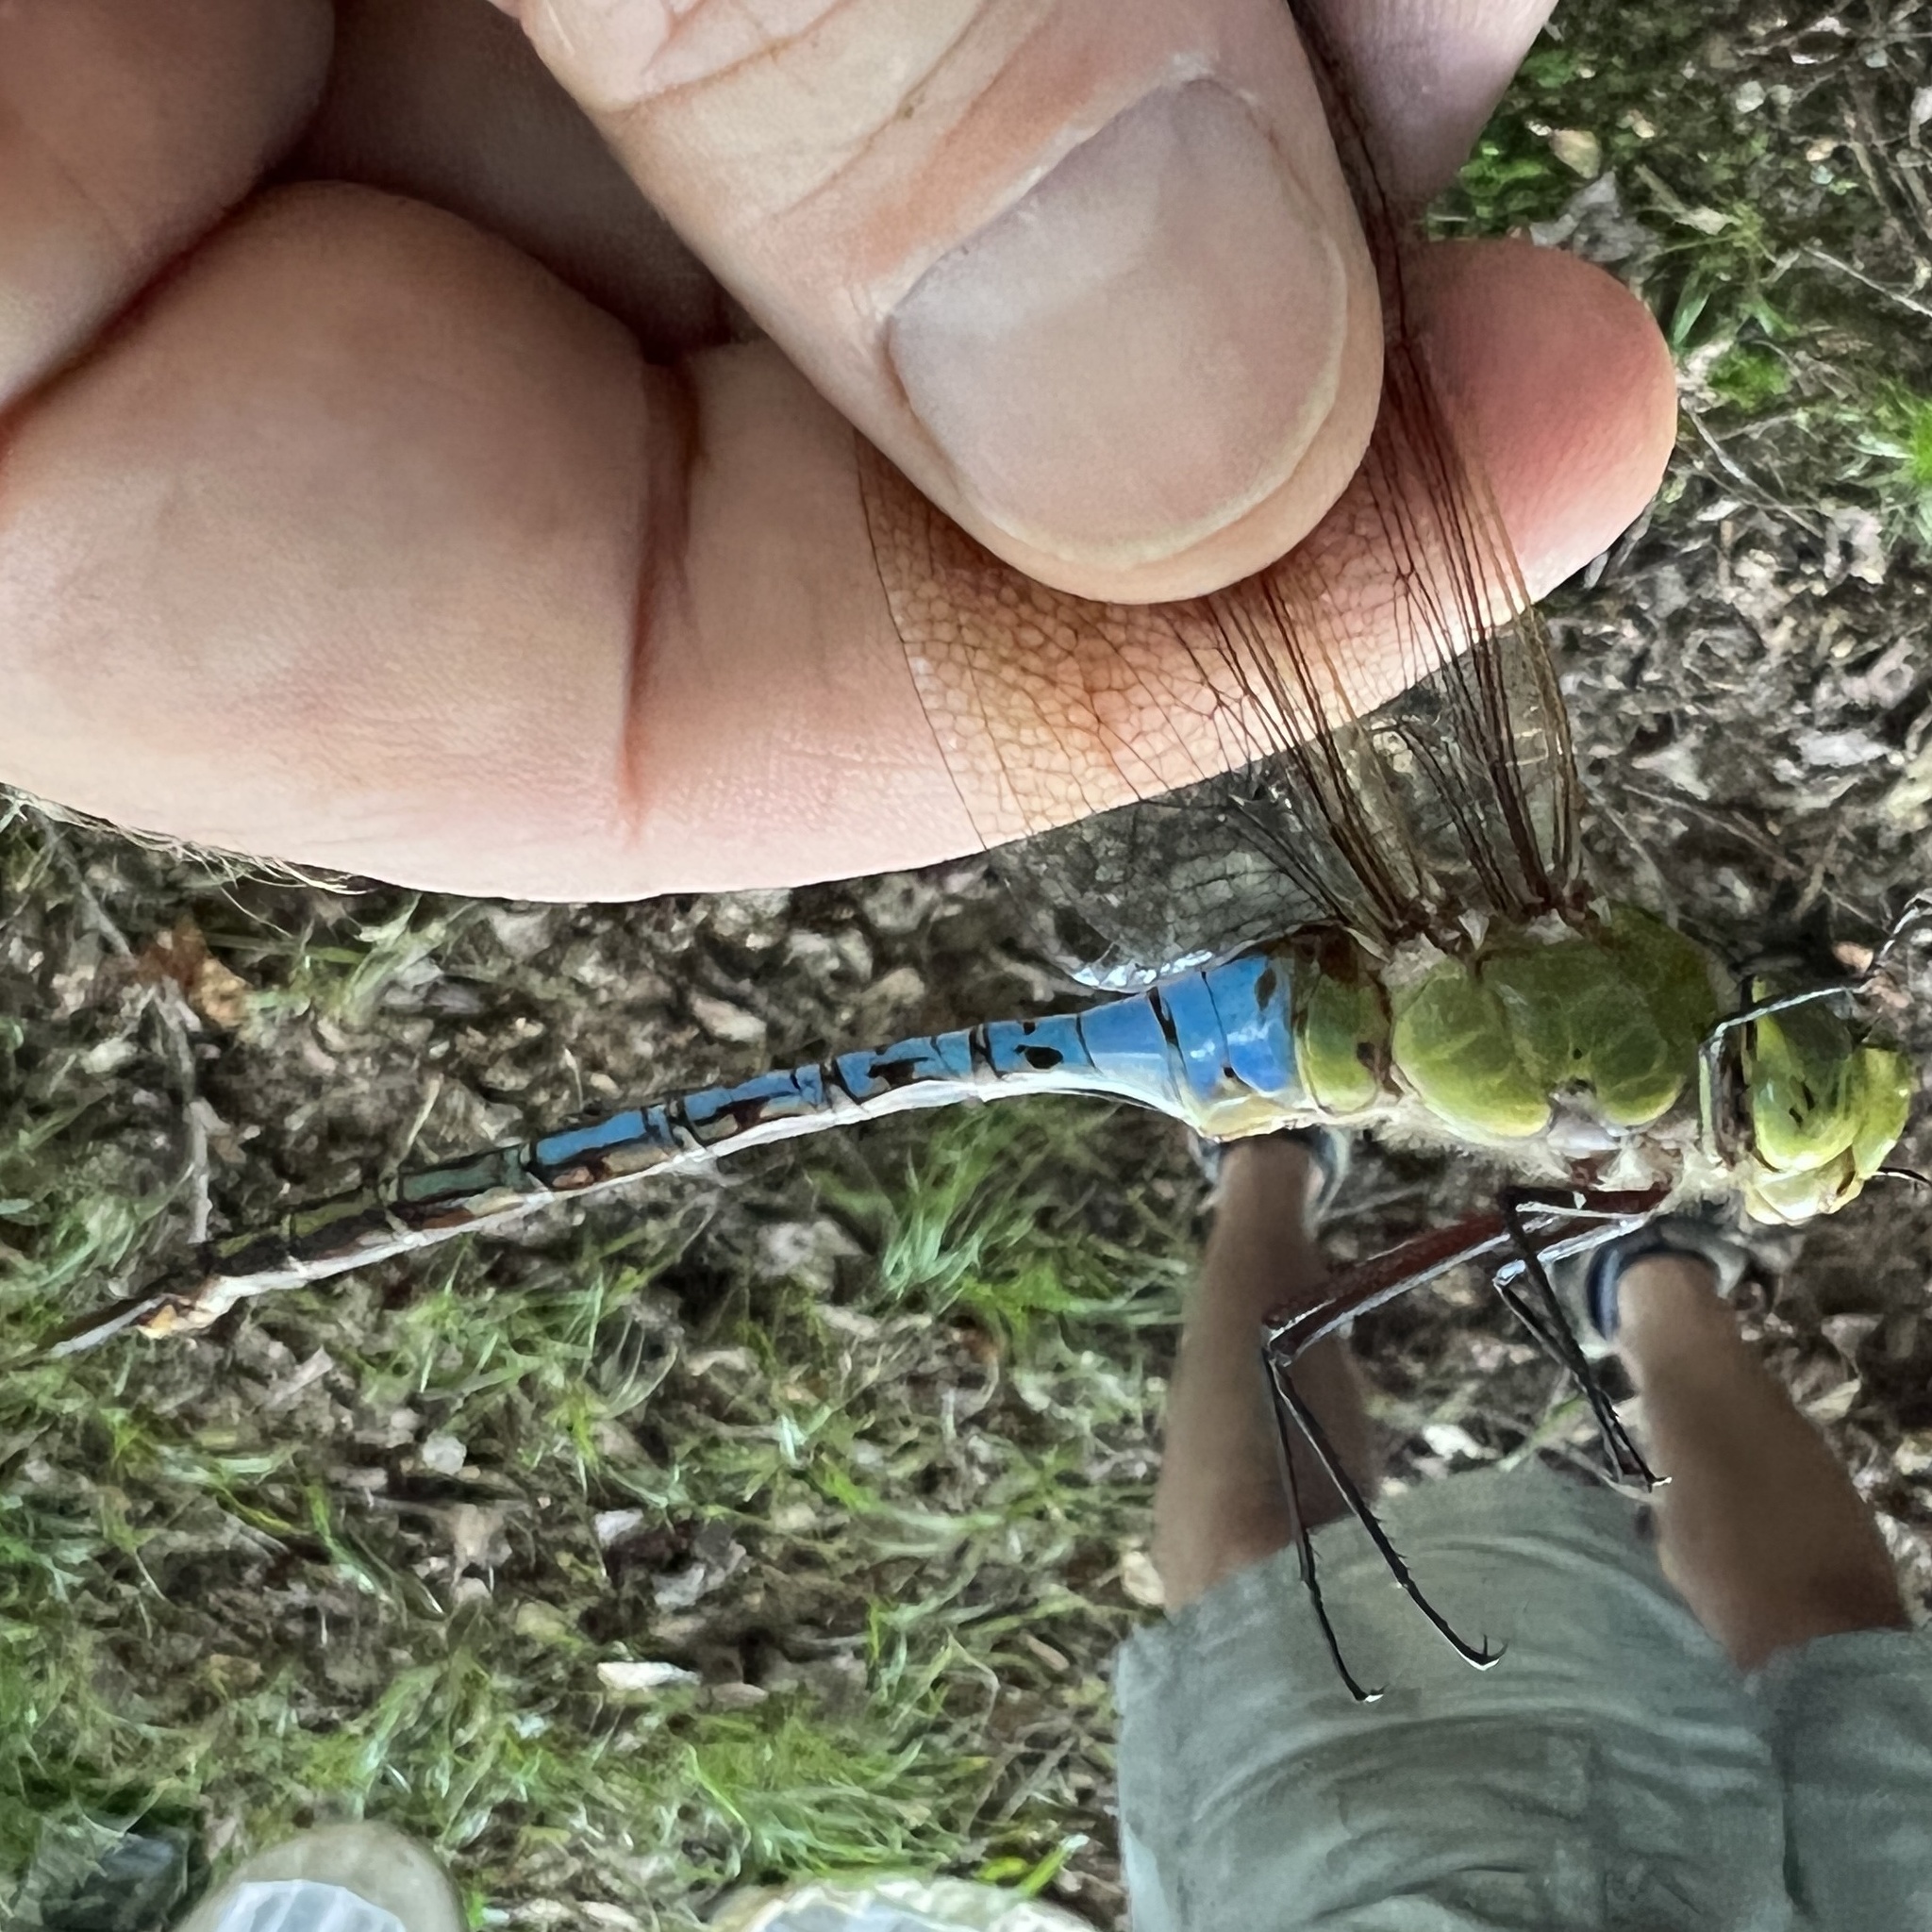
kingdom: Animalia
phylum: Arthropoda
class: Insecta
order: Odonata
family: Aeshnidae
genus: Anax
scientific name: Anax junius
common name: Common green darner
